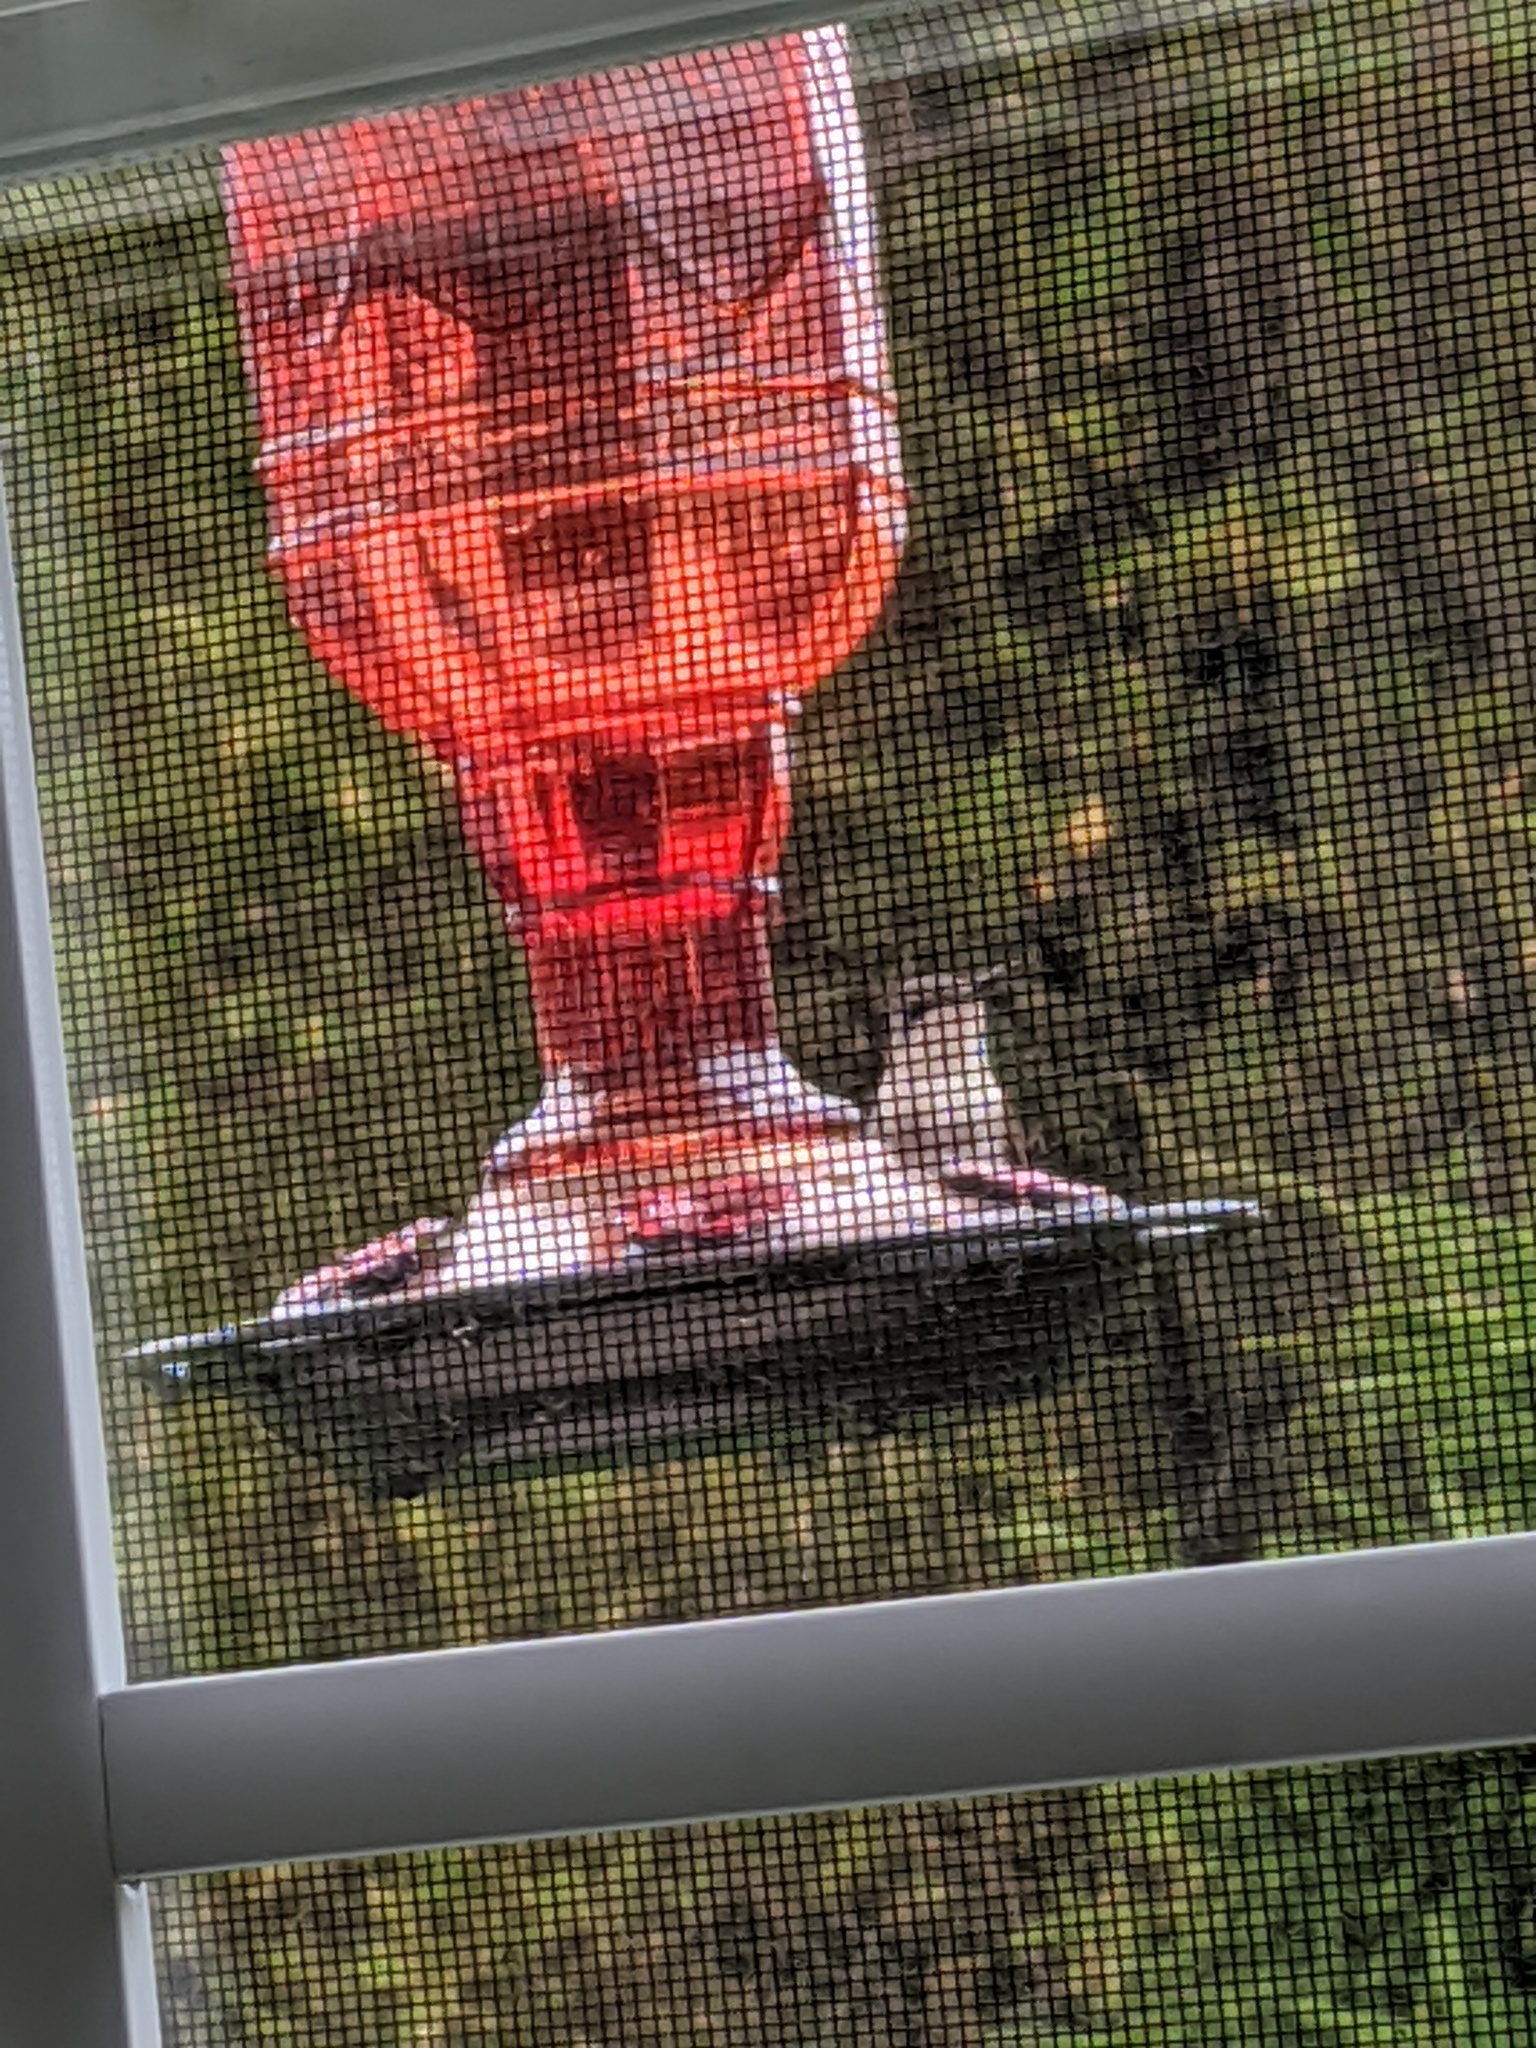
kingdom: Animalia
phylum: Chordata
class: Aves
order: Apodiformes
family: Trochilidae
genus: Archilochus
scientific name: Archilochus colubris
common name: Ruby-throated hummingbird
